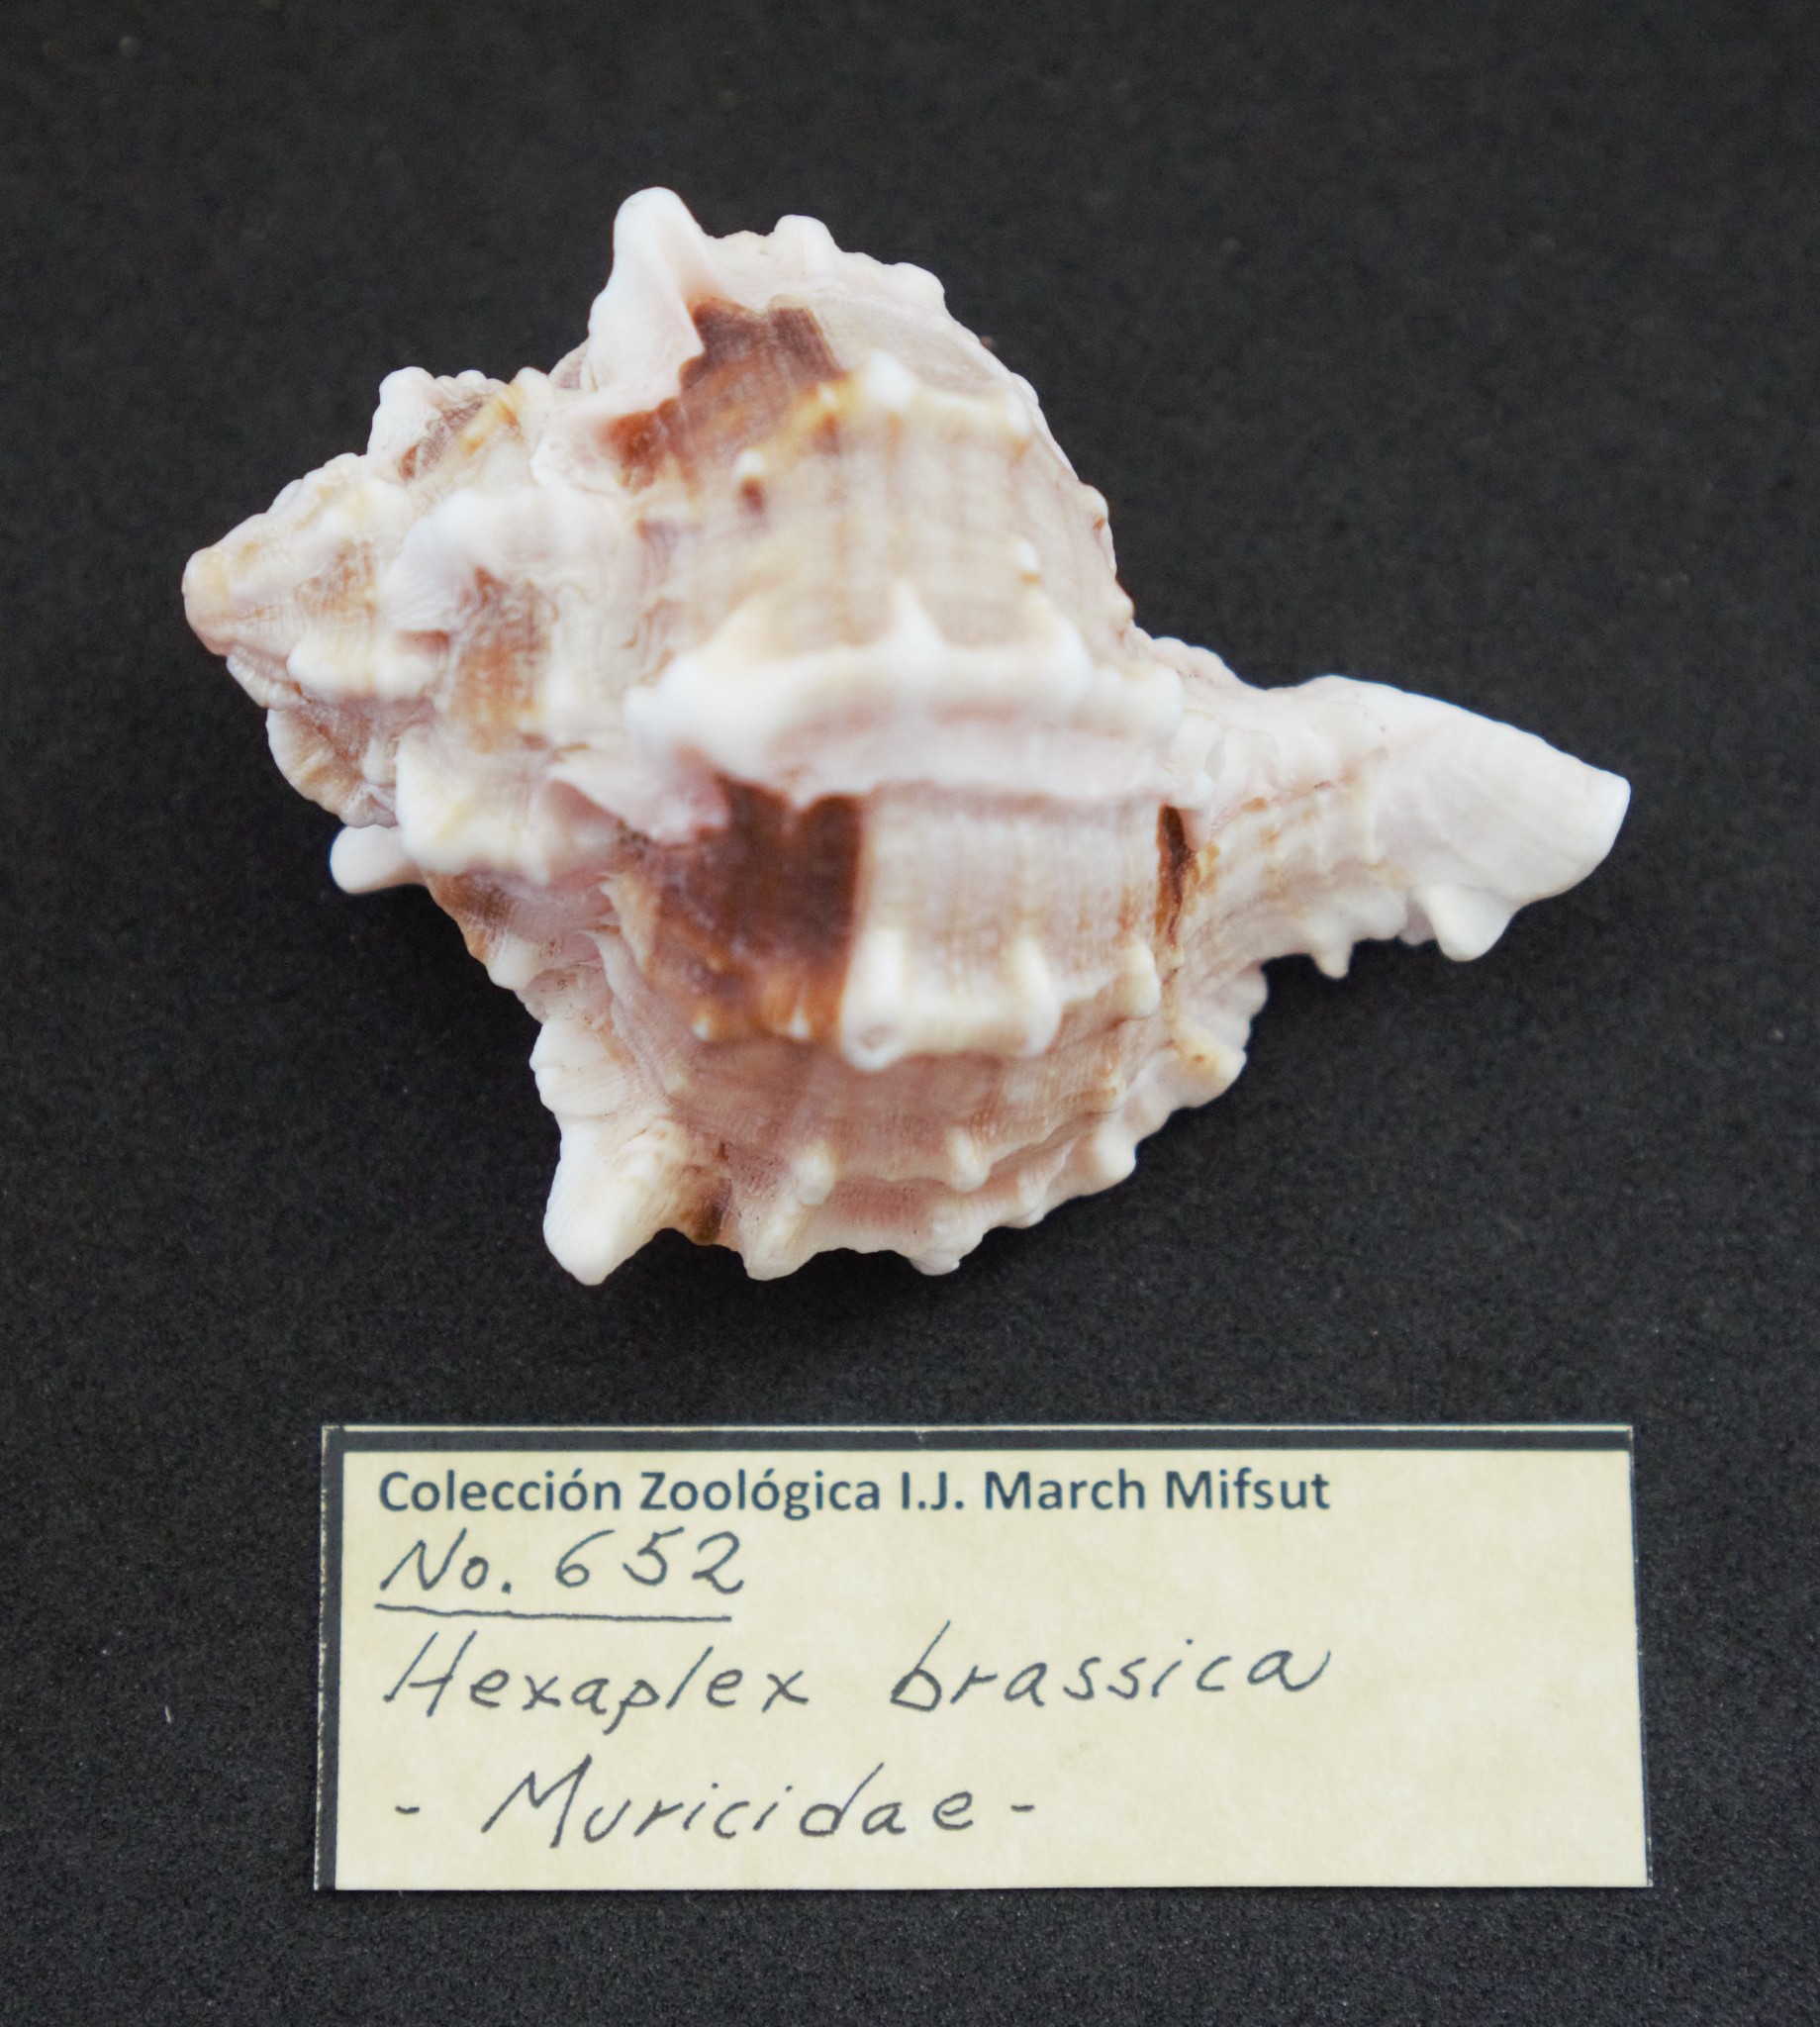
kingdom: Animalia
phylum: Mollusca
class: Gastropoda
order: Neogastropoda
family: Muricidae
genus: Phyllonotus
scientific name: Phyllonotus erythrostomus
